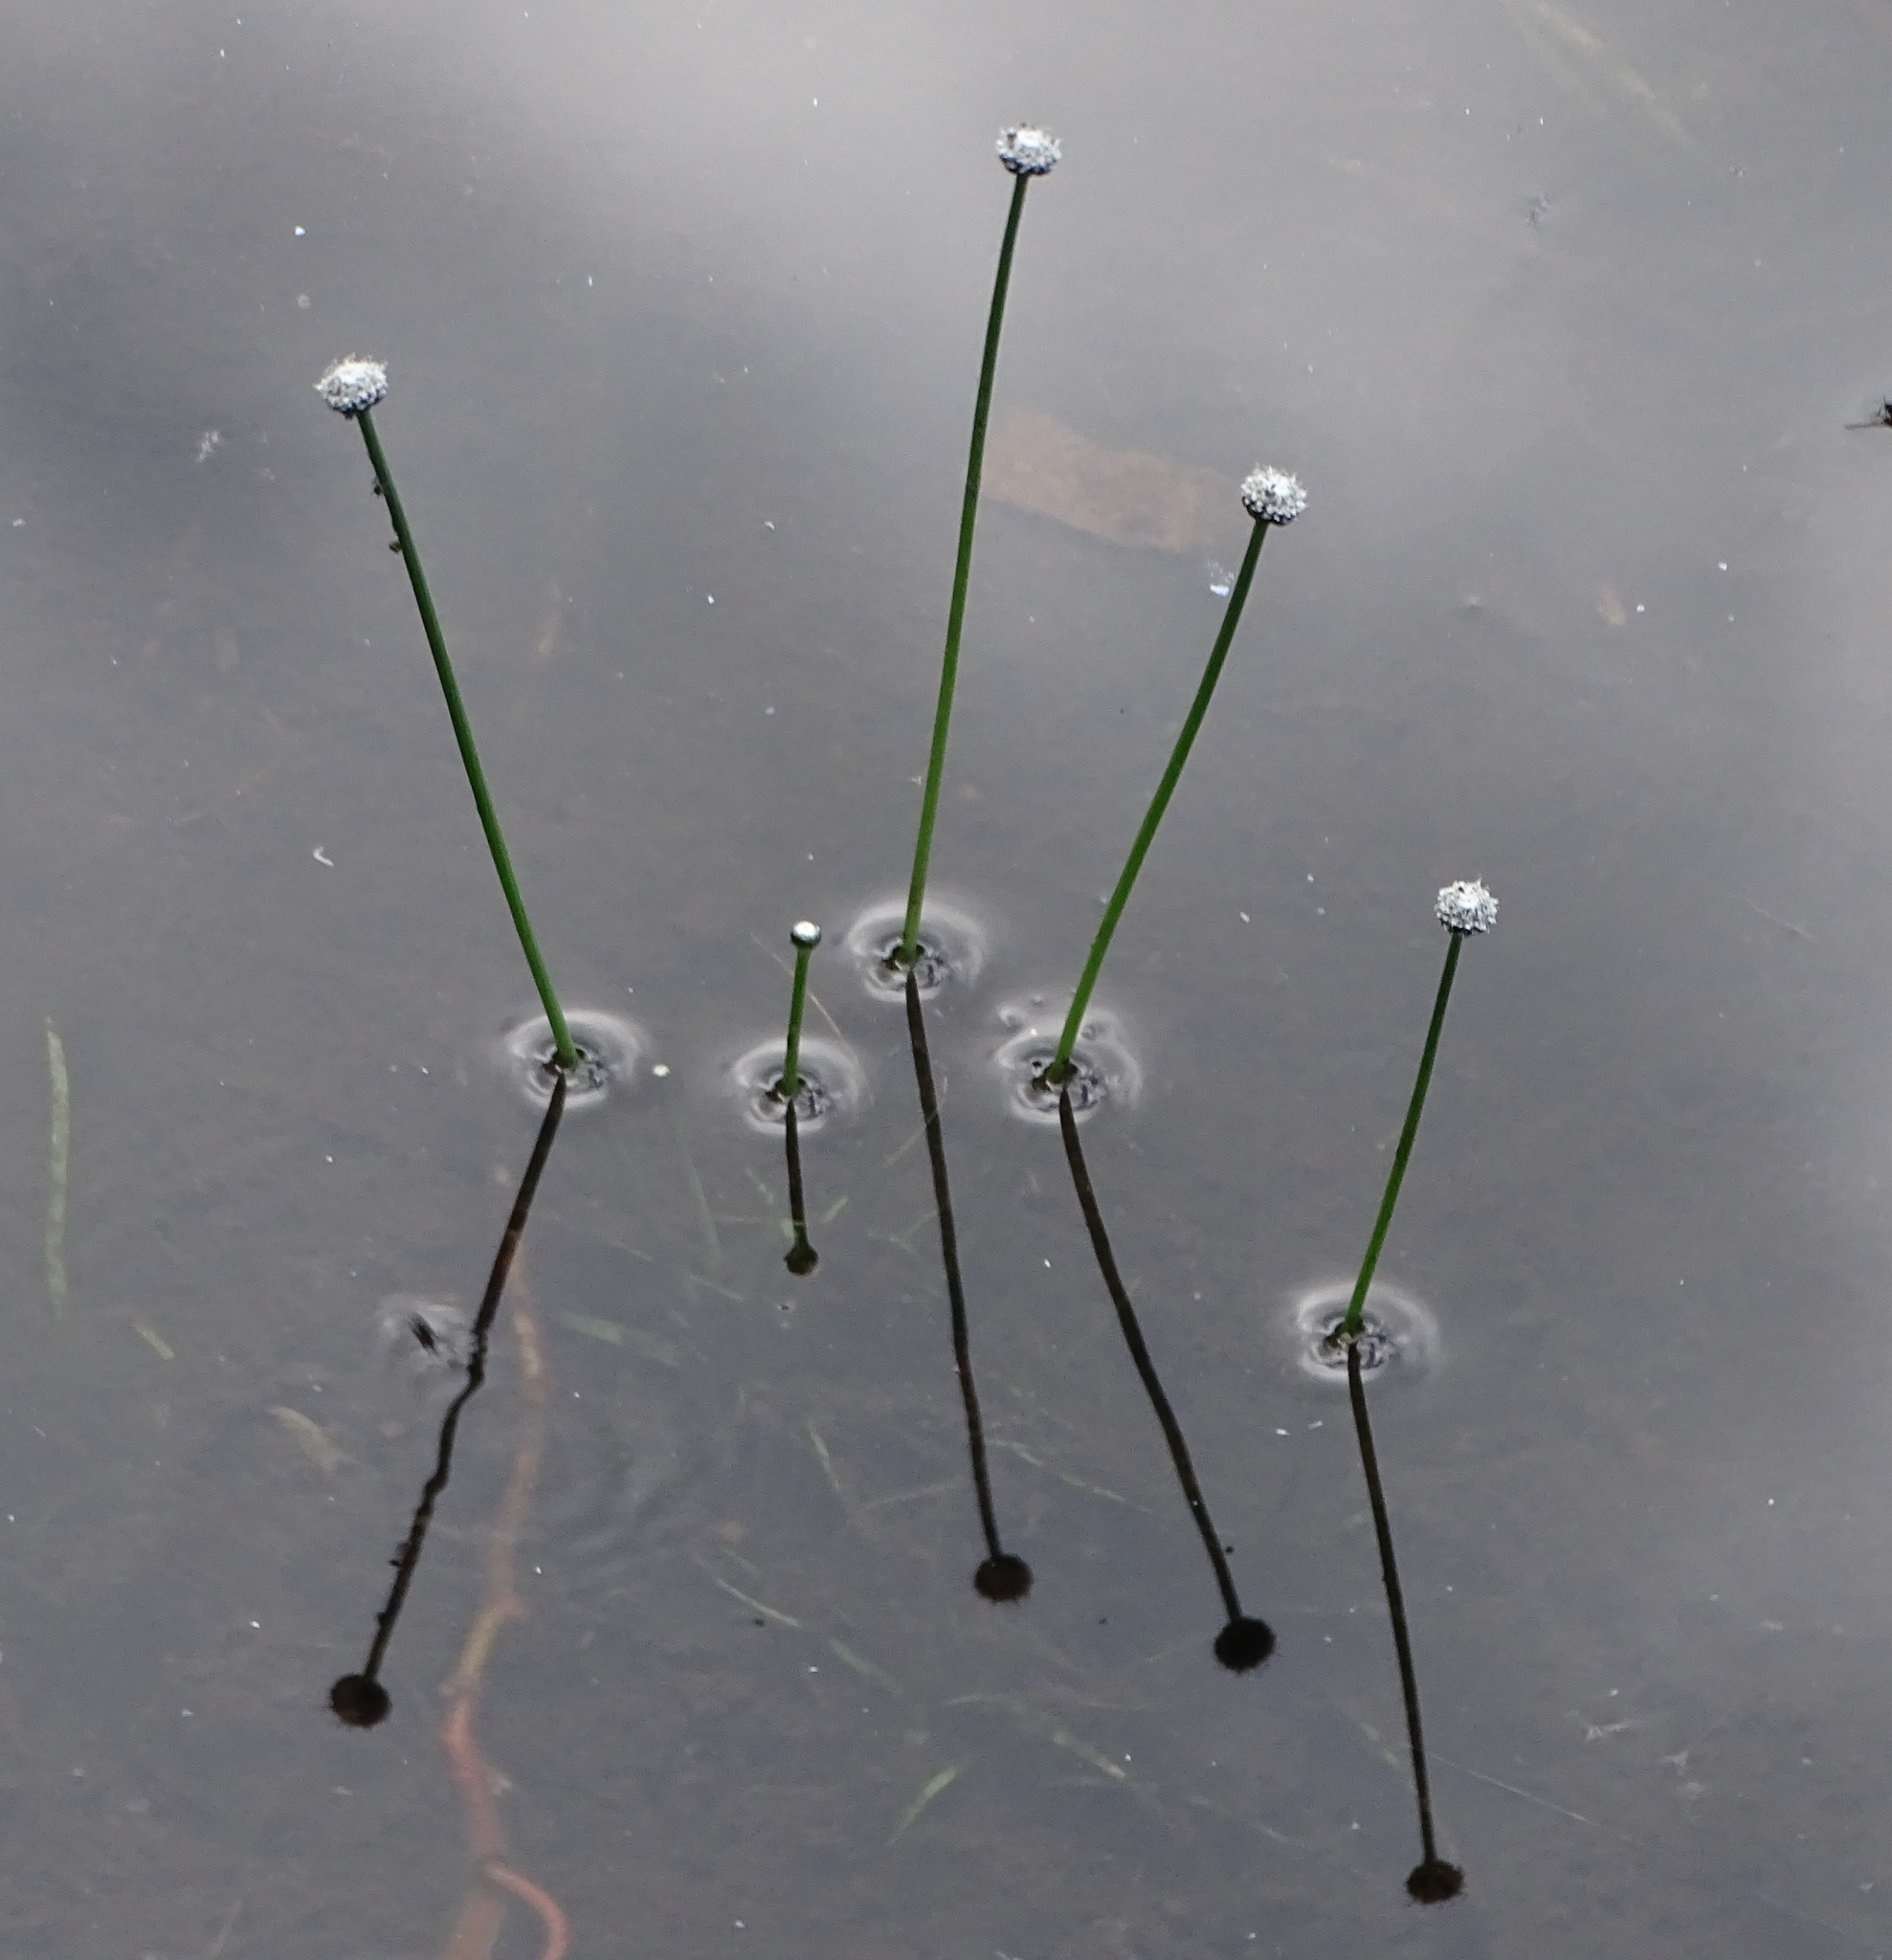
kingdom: Plantae
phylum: Tracheophyta
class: Liliopsida
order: Poales
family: Eriocaulaceae
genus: Eriocaulon
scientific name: Eriocaulon aquaticum
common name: Pipewort
